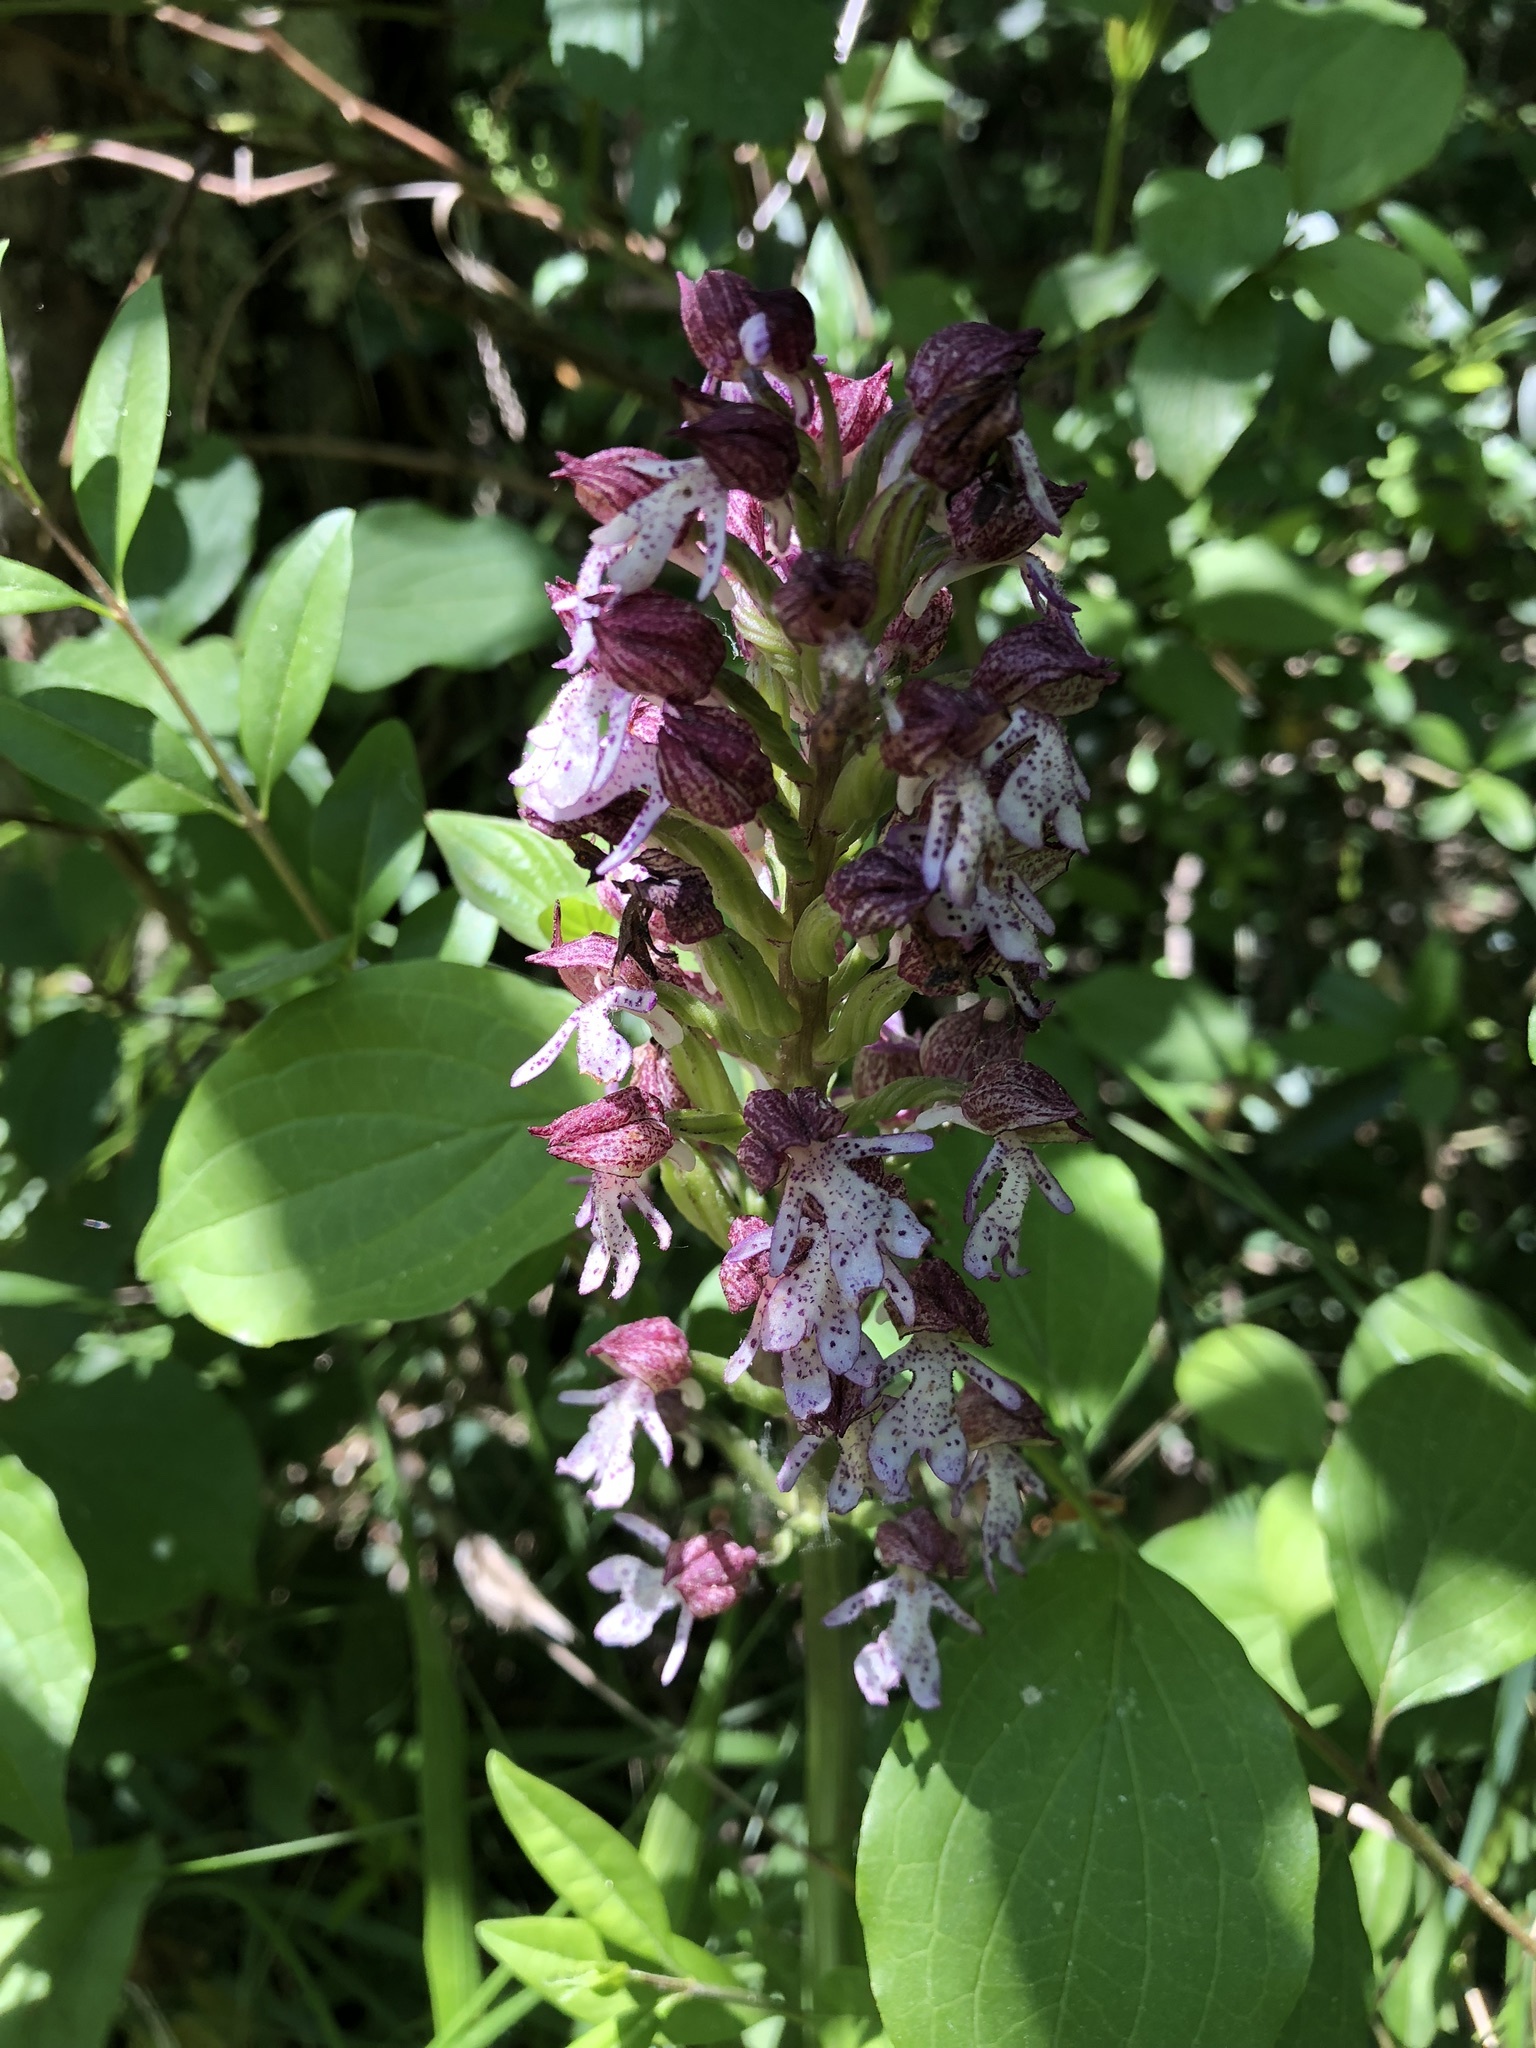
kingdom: Plantae
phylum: Tracheophyta
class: Liliopsida
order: Asparagales
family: Orchidaceae
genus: Orchis
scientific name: Orchis purpurea
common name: Lady orchid
